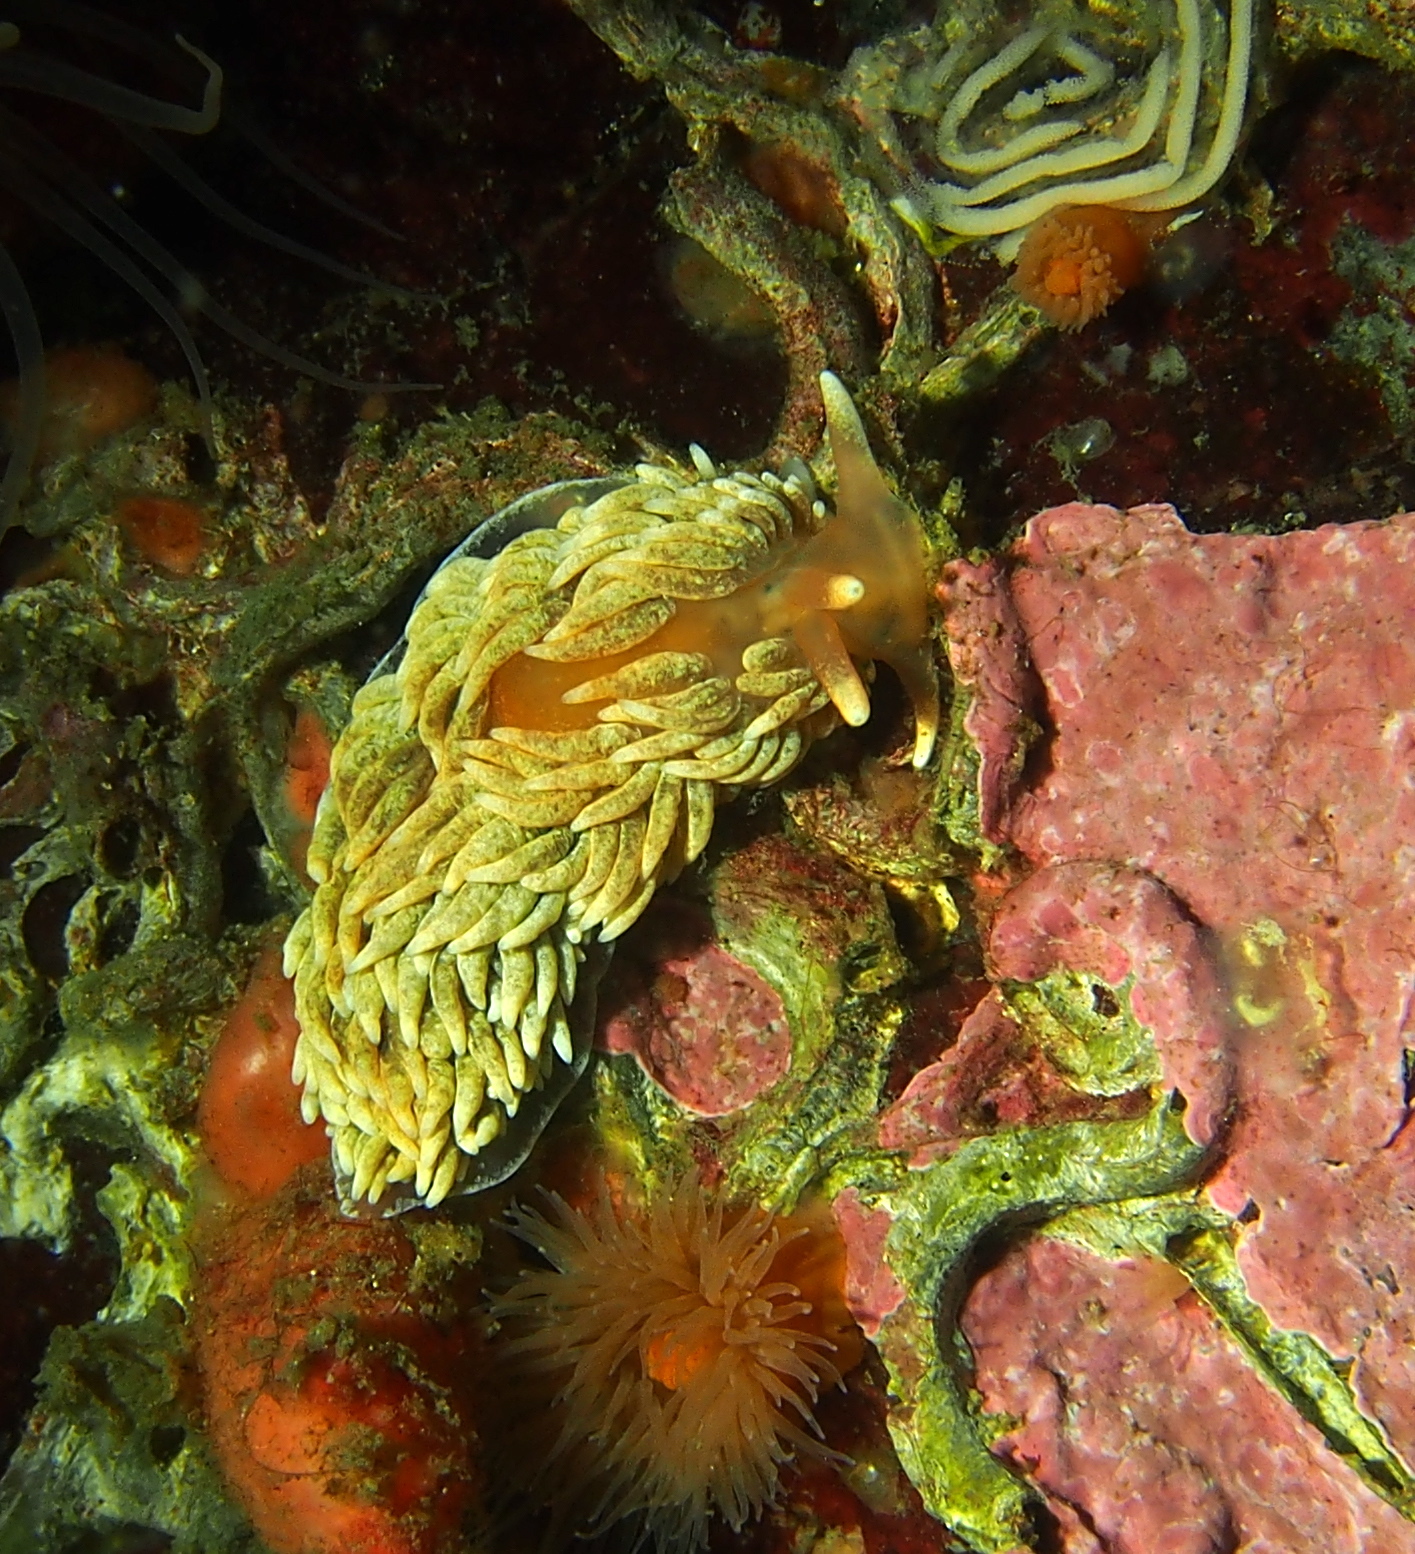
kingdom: Animalia
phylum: Mollusca
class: Gastropoda
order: Nudibranchia
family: Aeolidiidae
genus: Aeolidiella
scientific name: Aeolidiella glauca
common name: Orange-brown aeolid
